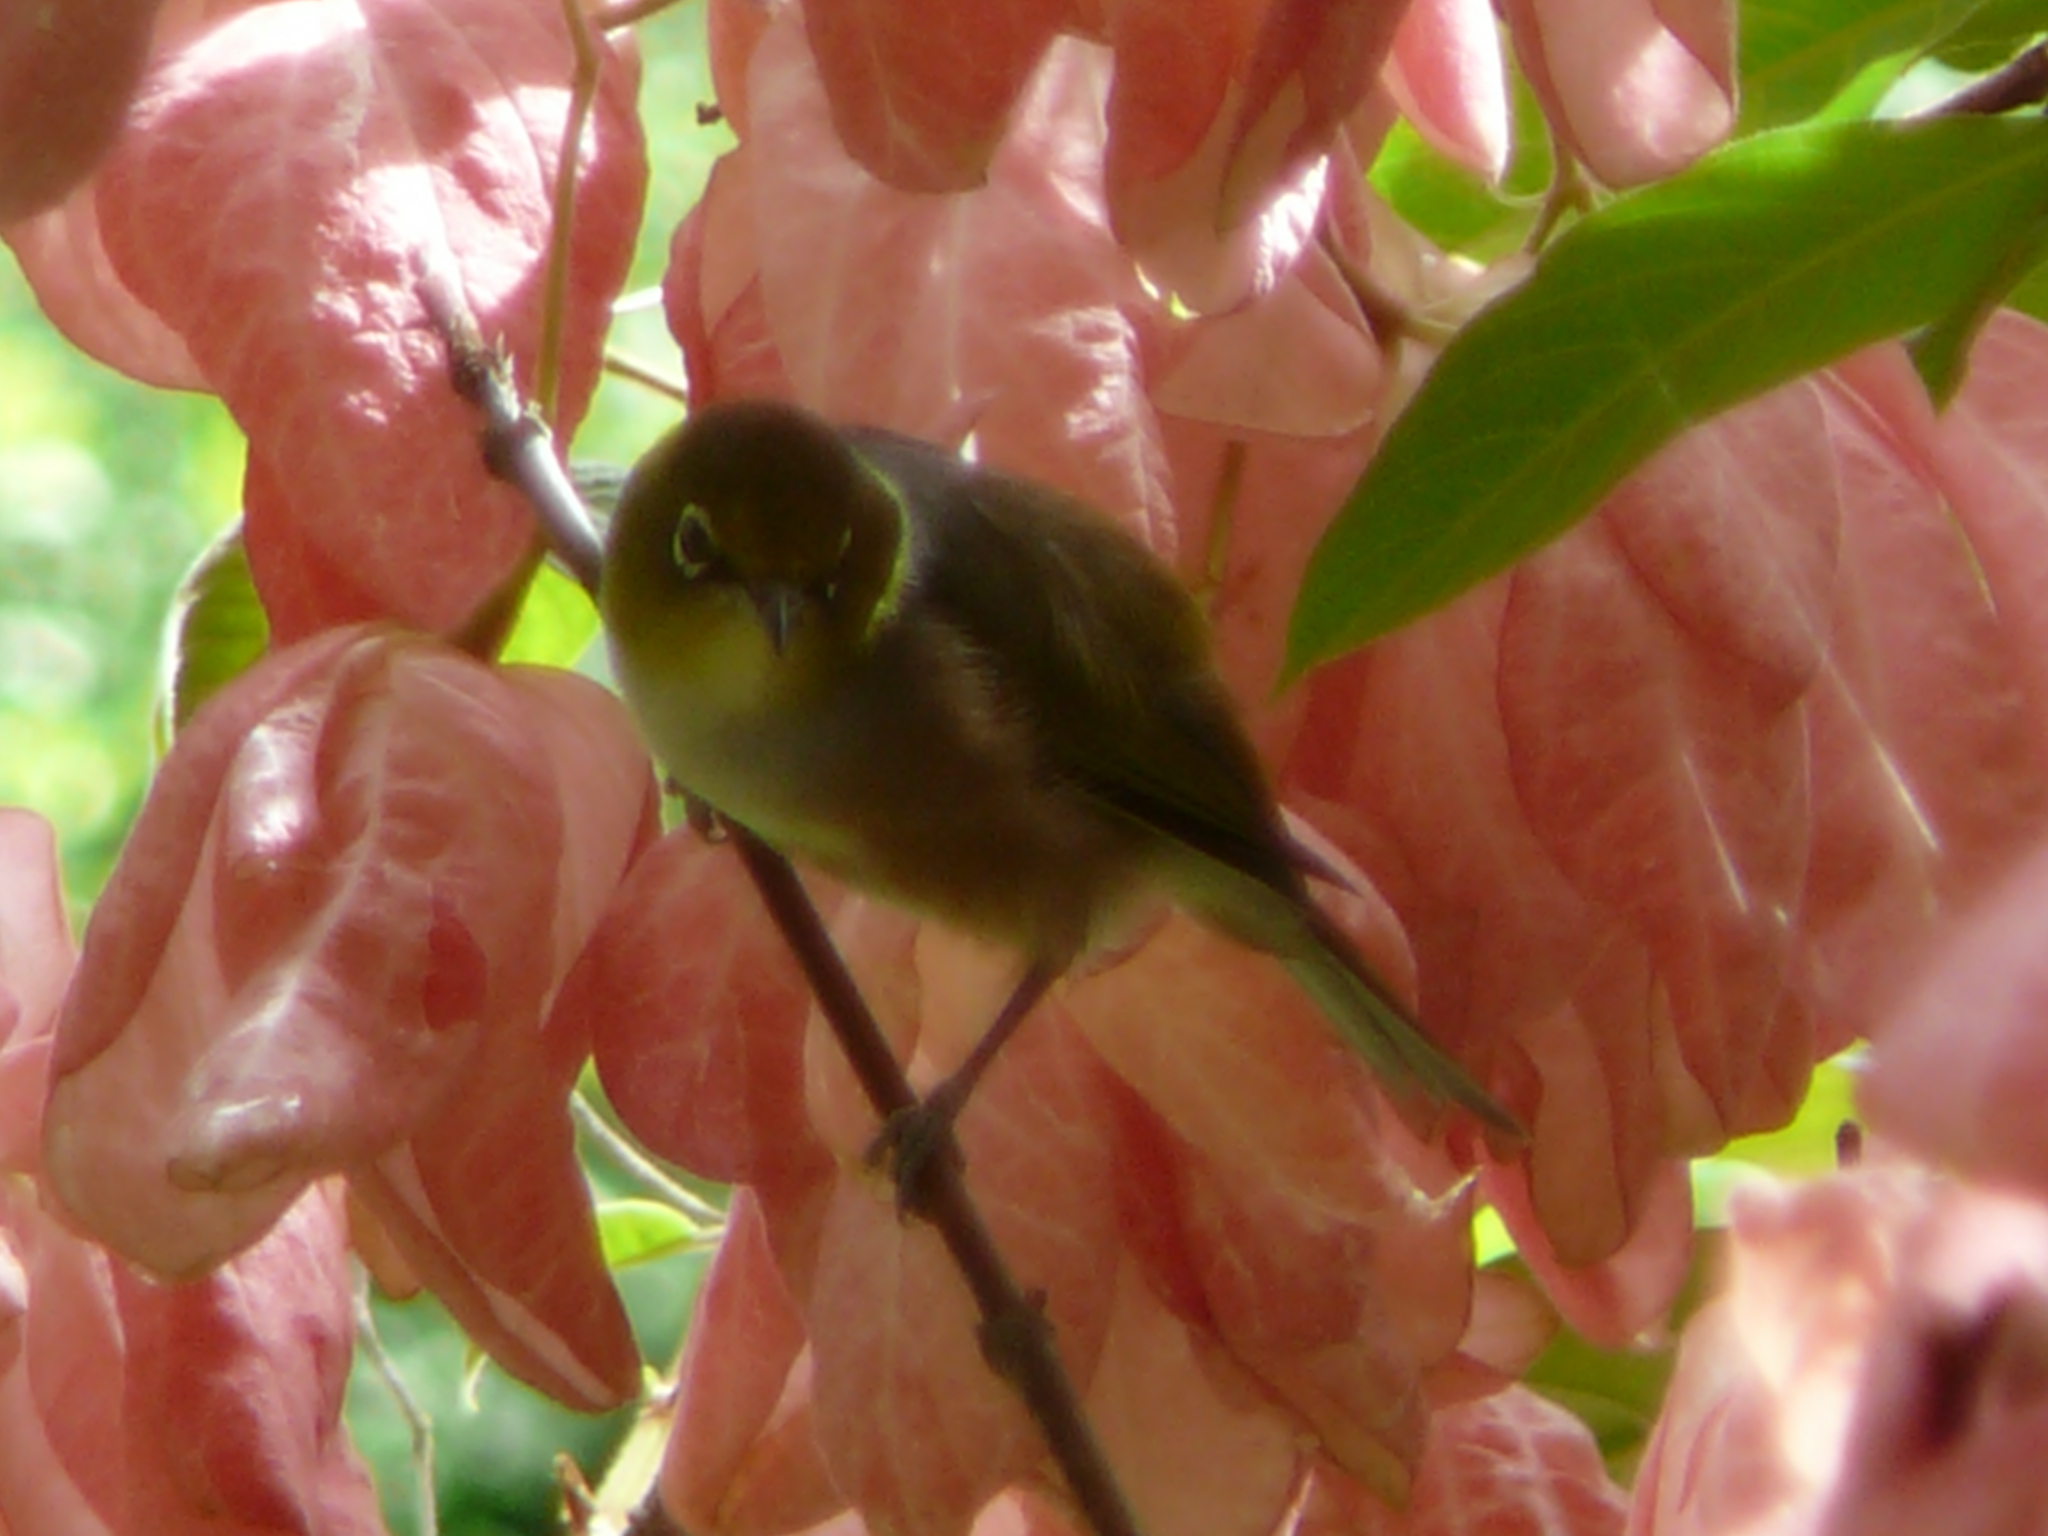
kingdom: Animalia
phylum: Chordata
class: Aves
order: Passeriformes
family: Zosteropidae
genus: Zosterops
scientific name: Zosterops lateralis
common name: Silvereye
